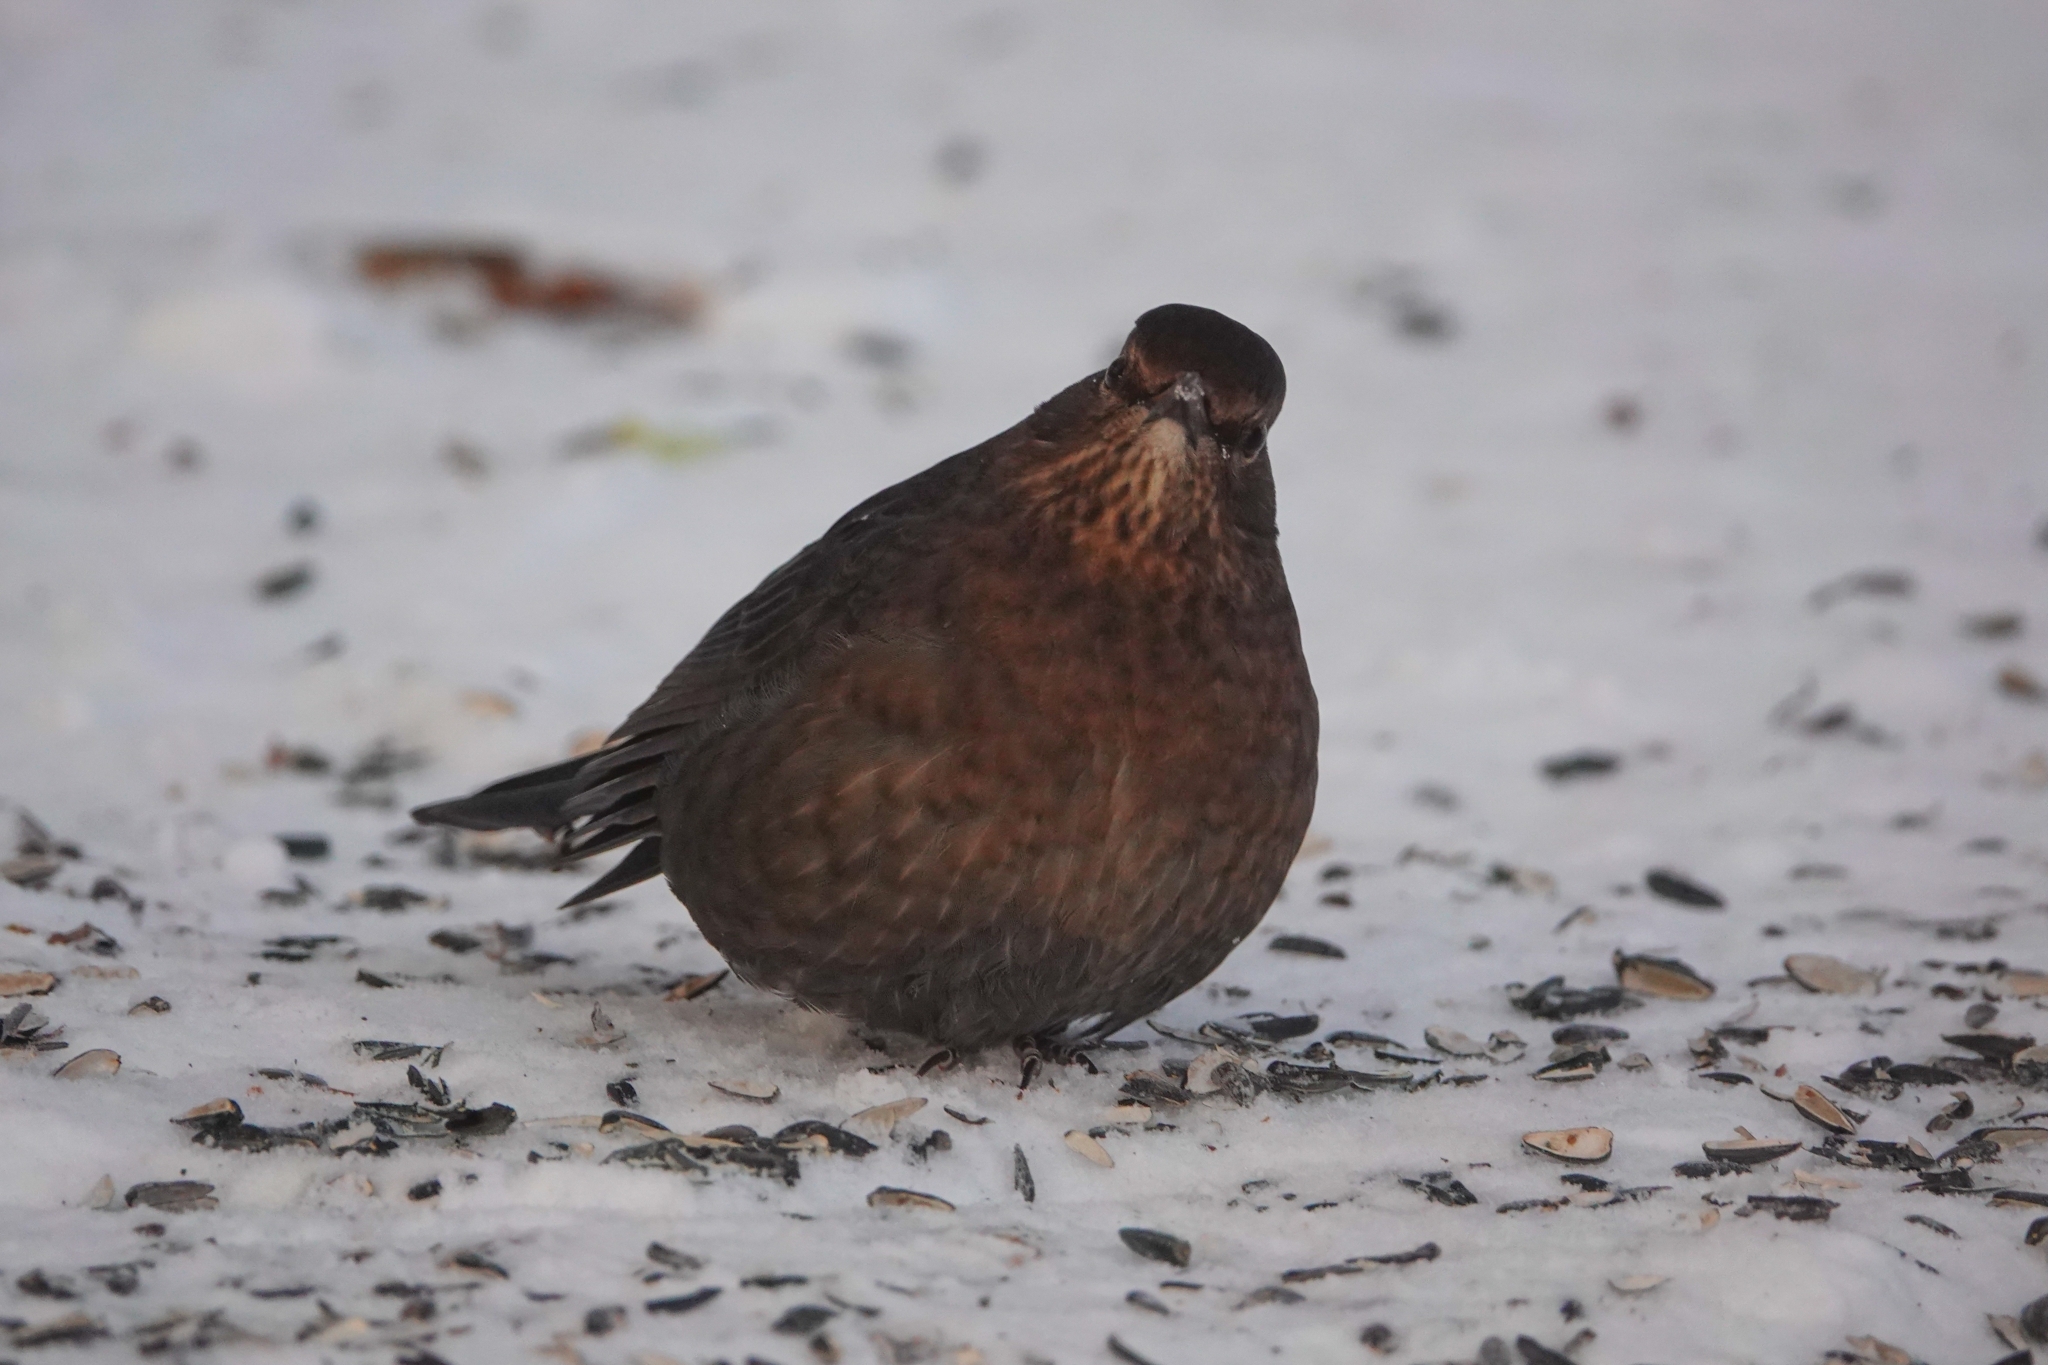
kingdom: Animalia
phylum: Chordata
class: Aves
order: Passeriformes
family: Turdidae
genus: Turdus
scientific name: Turdus merula
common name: Common blackbird
